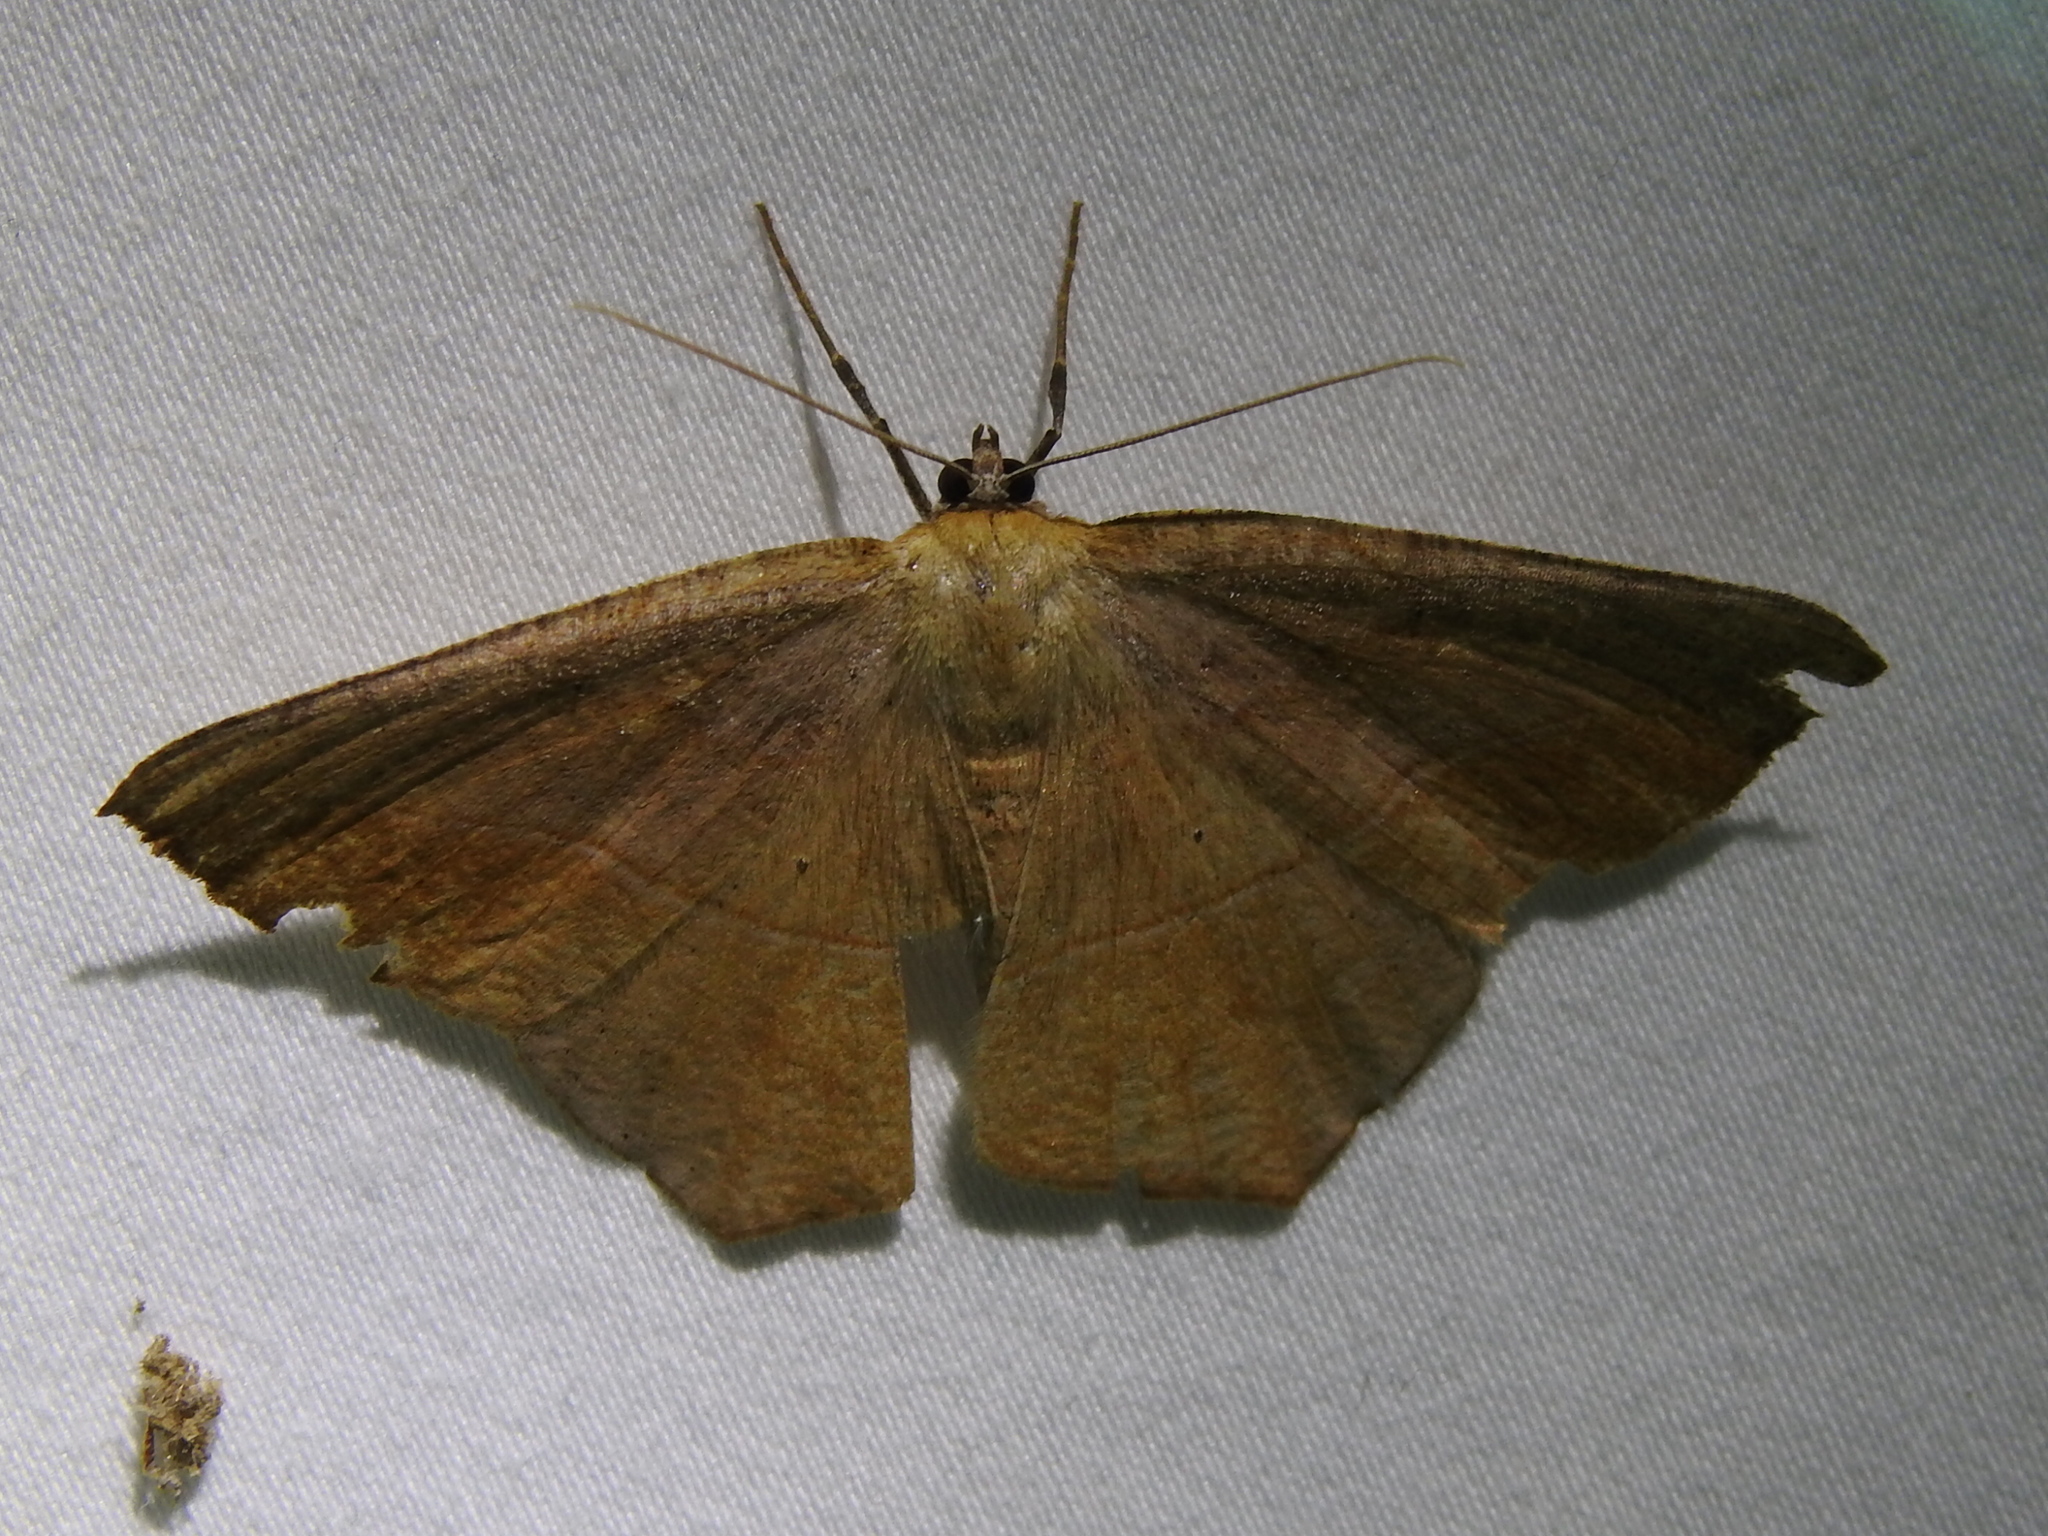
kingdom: Animalia
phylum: Arthropoda
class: Insecta
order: Lepidoptera
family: Geometridae
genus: Prochoerodes
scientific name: Prochoerodes lineola
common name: Large maple spanworm
